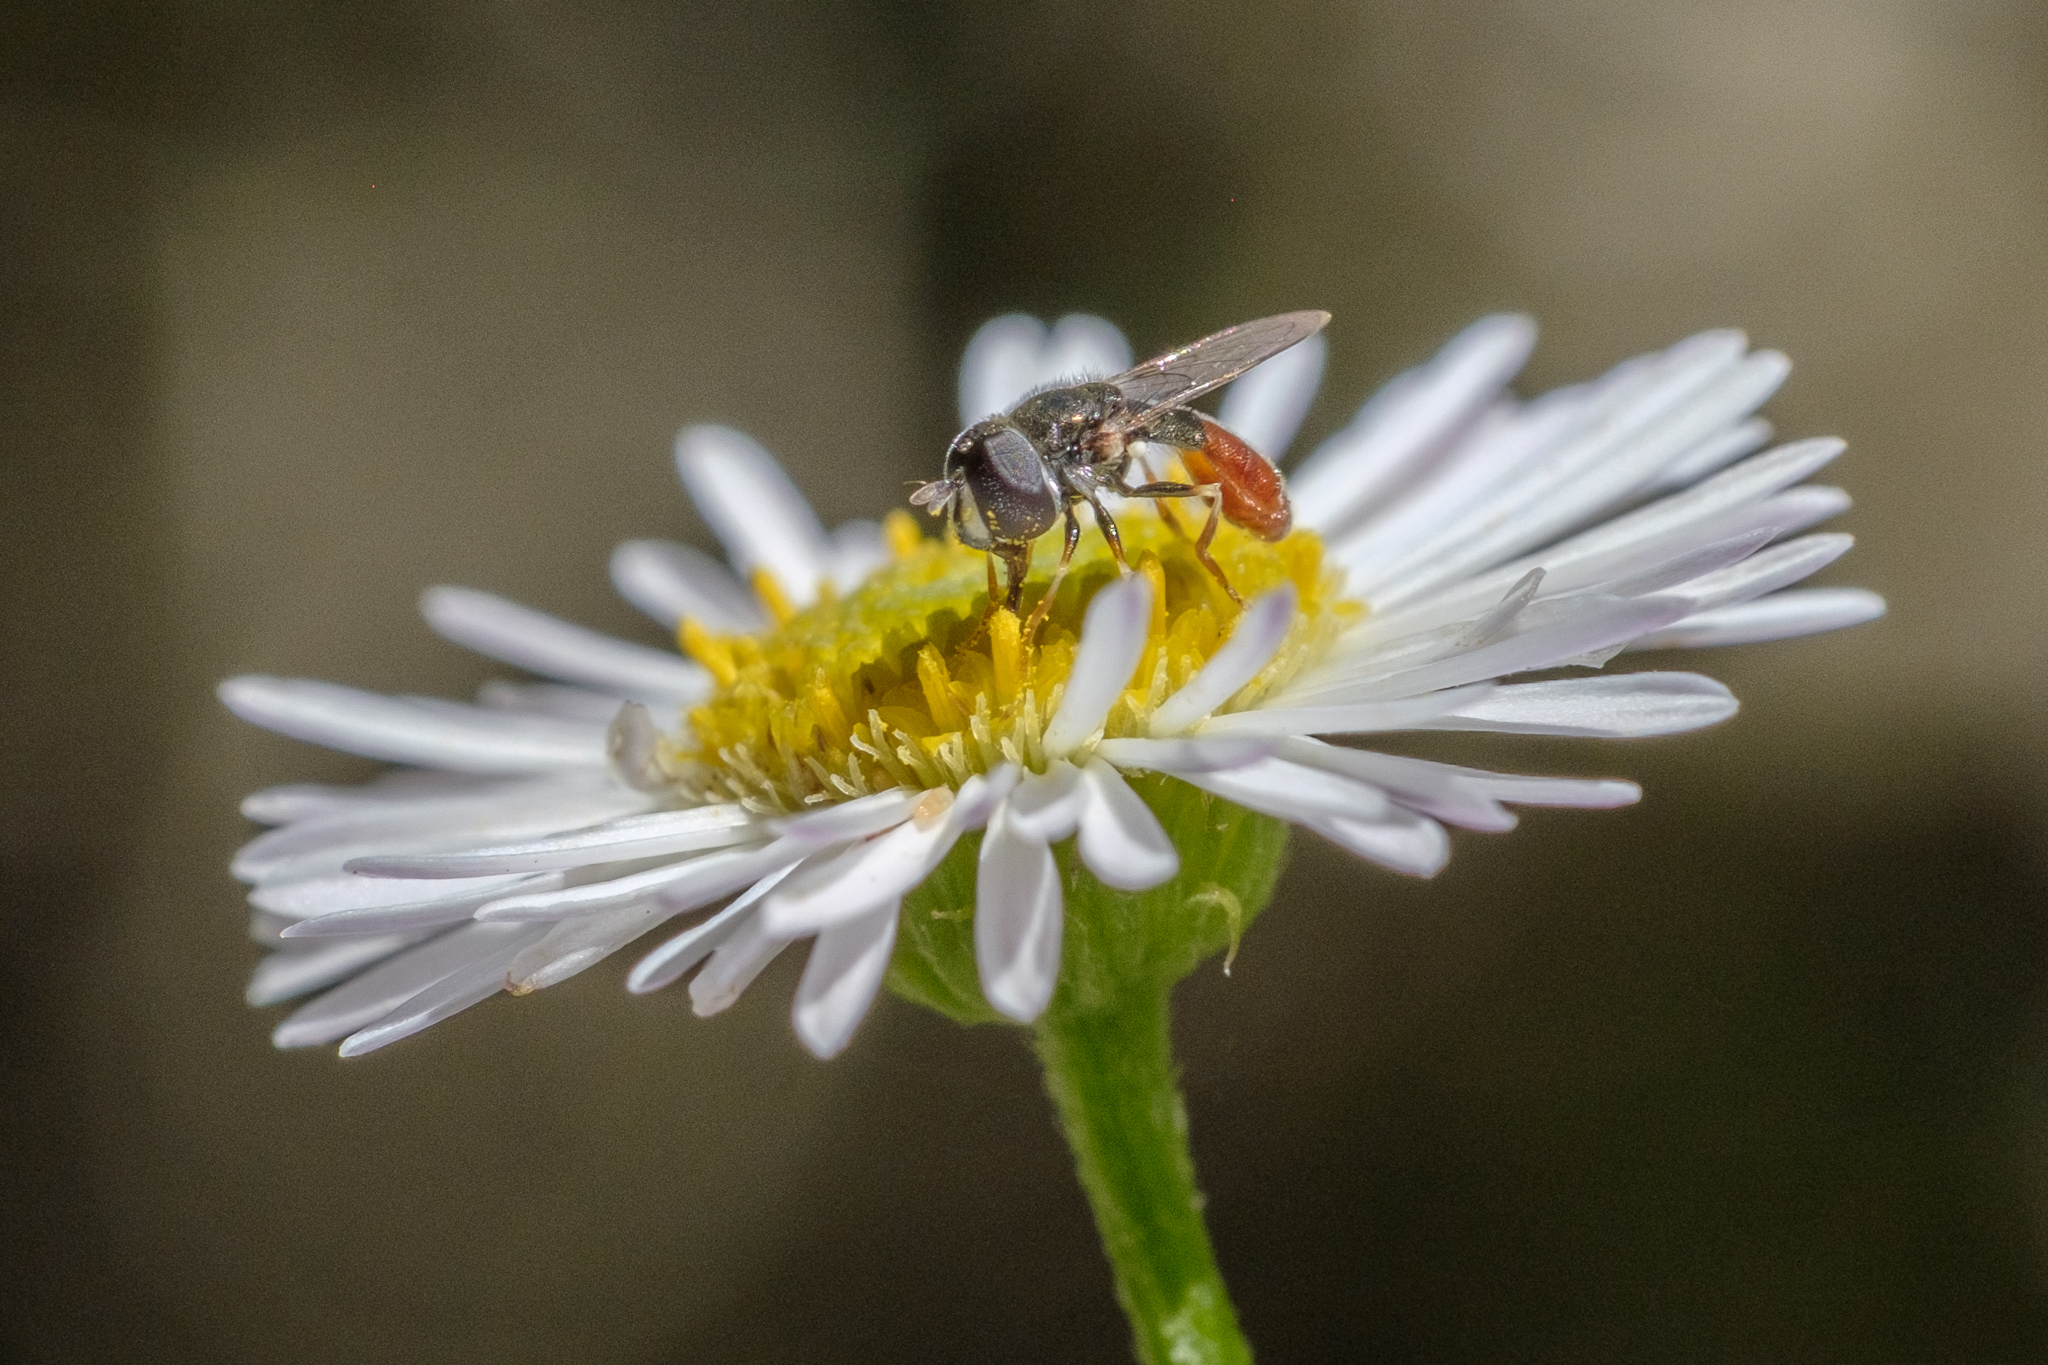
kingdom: Animalia
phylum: Arthropoda
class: Insecta
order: Diptera
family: Syrphidae
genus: Paragus
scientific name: Paragus haemorrhous
